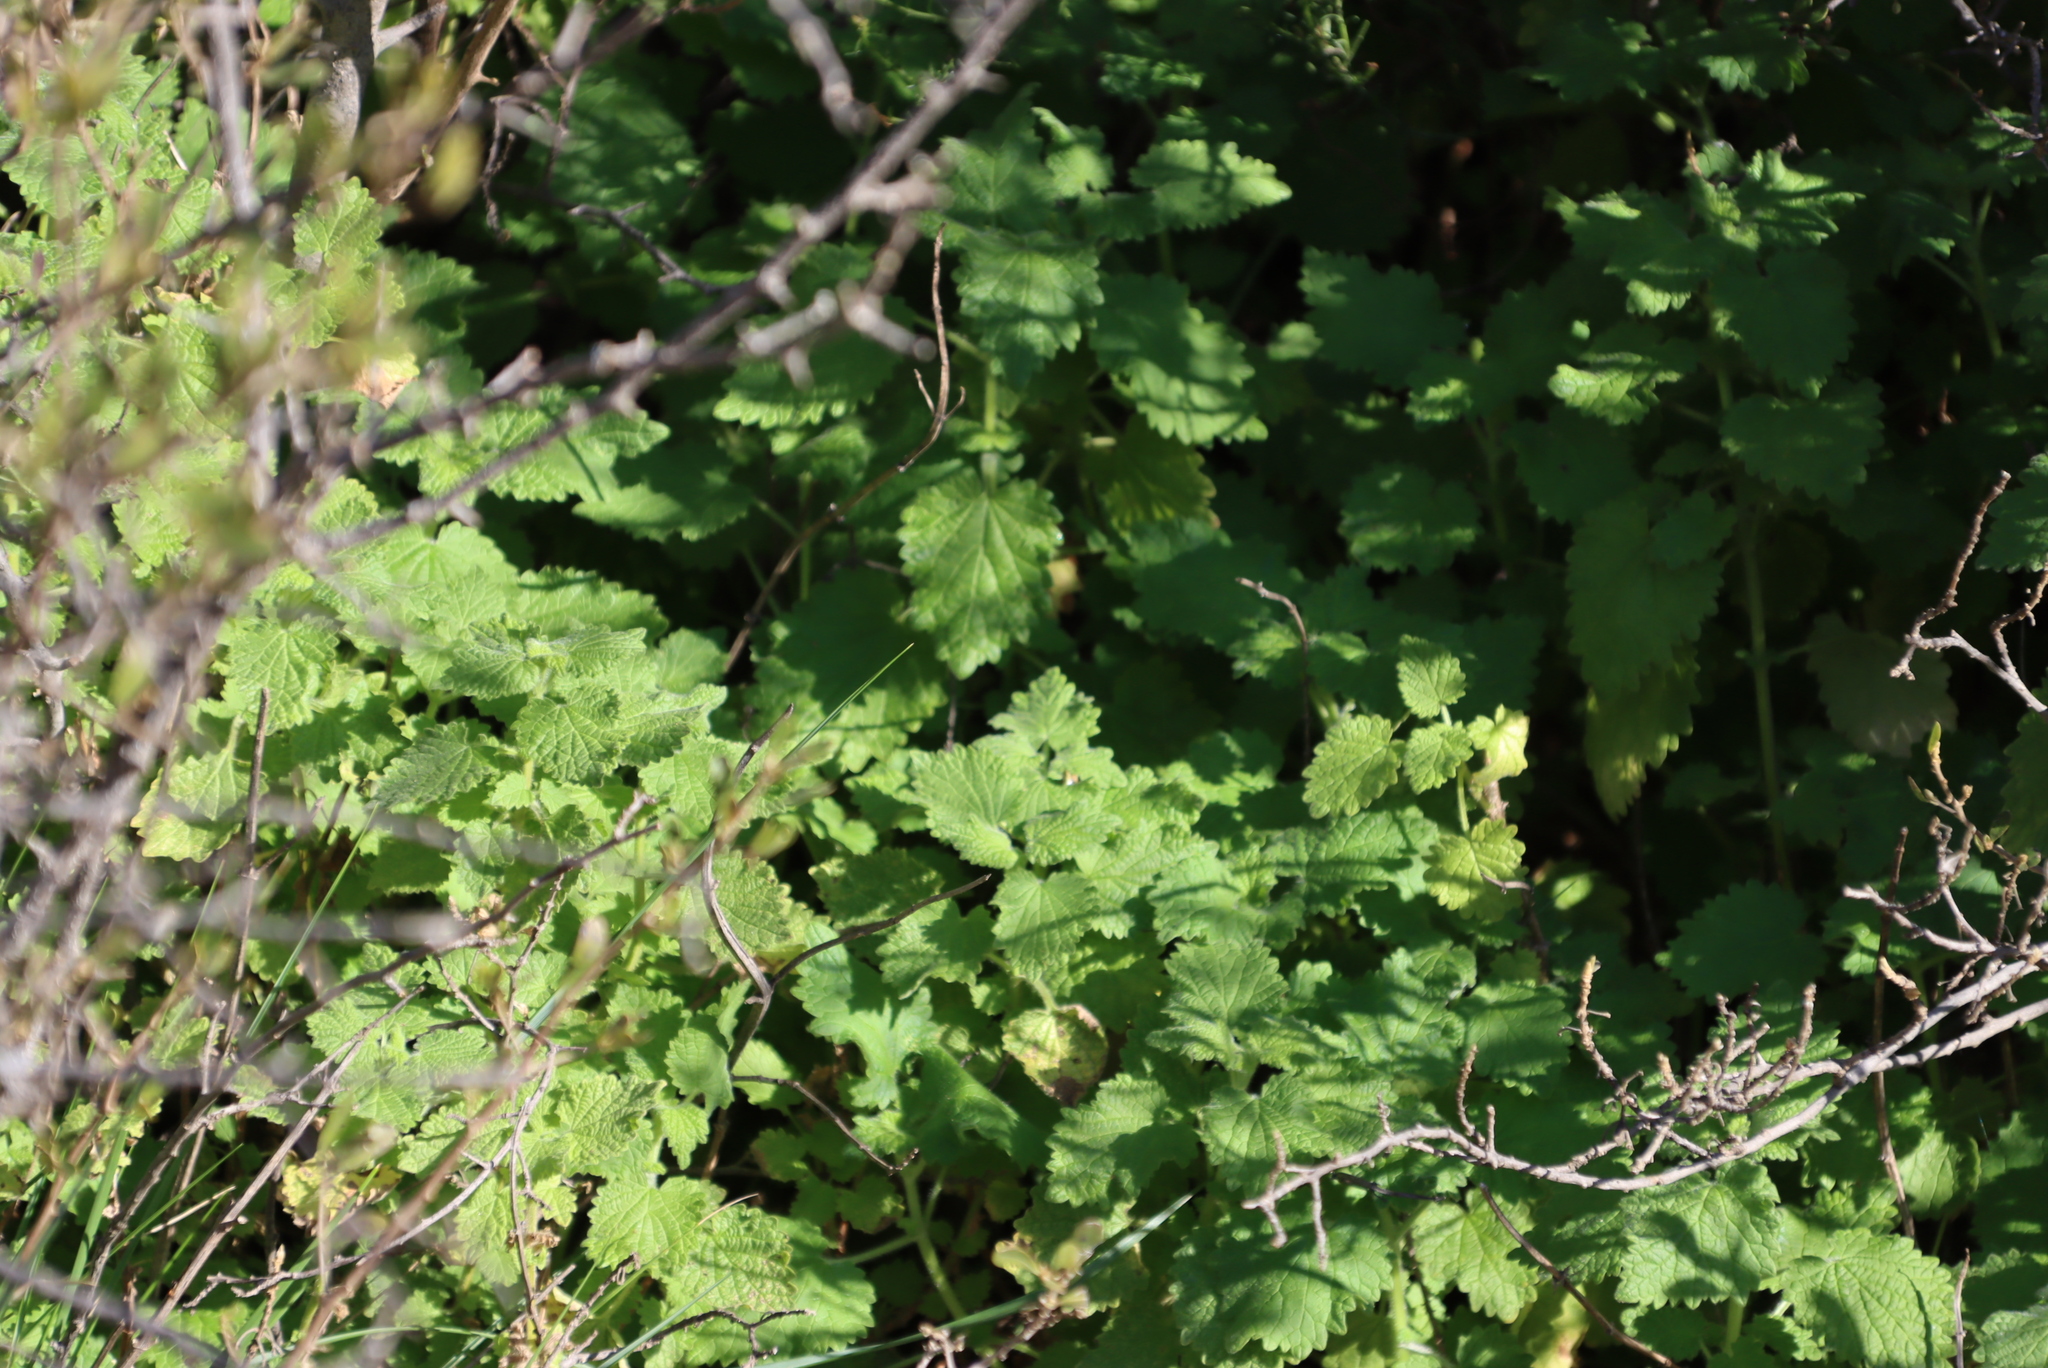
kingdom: Plantae
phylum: Tracheophyta
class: Magnoliopsida
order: Lamiales
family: Lamiaceae
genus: Pseudodictamnus
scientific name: Pseudodictamnus africanus
